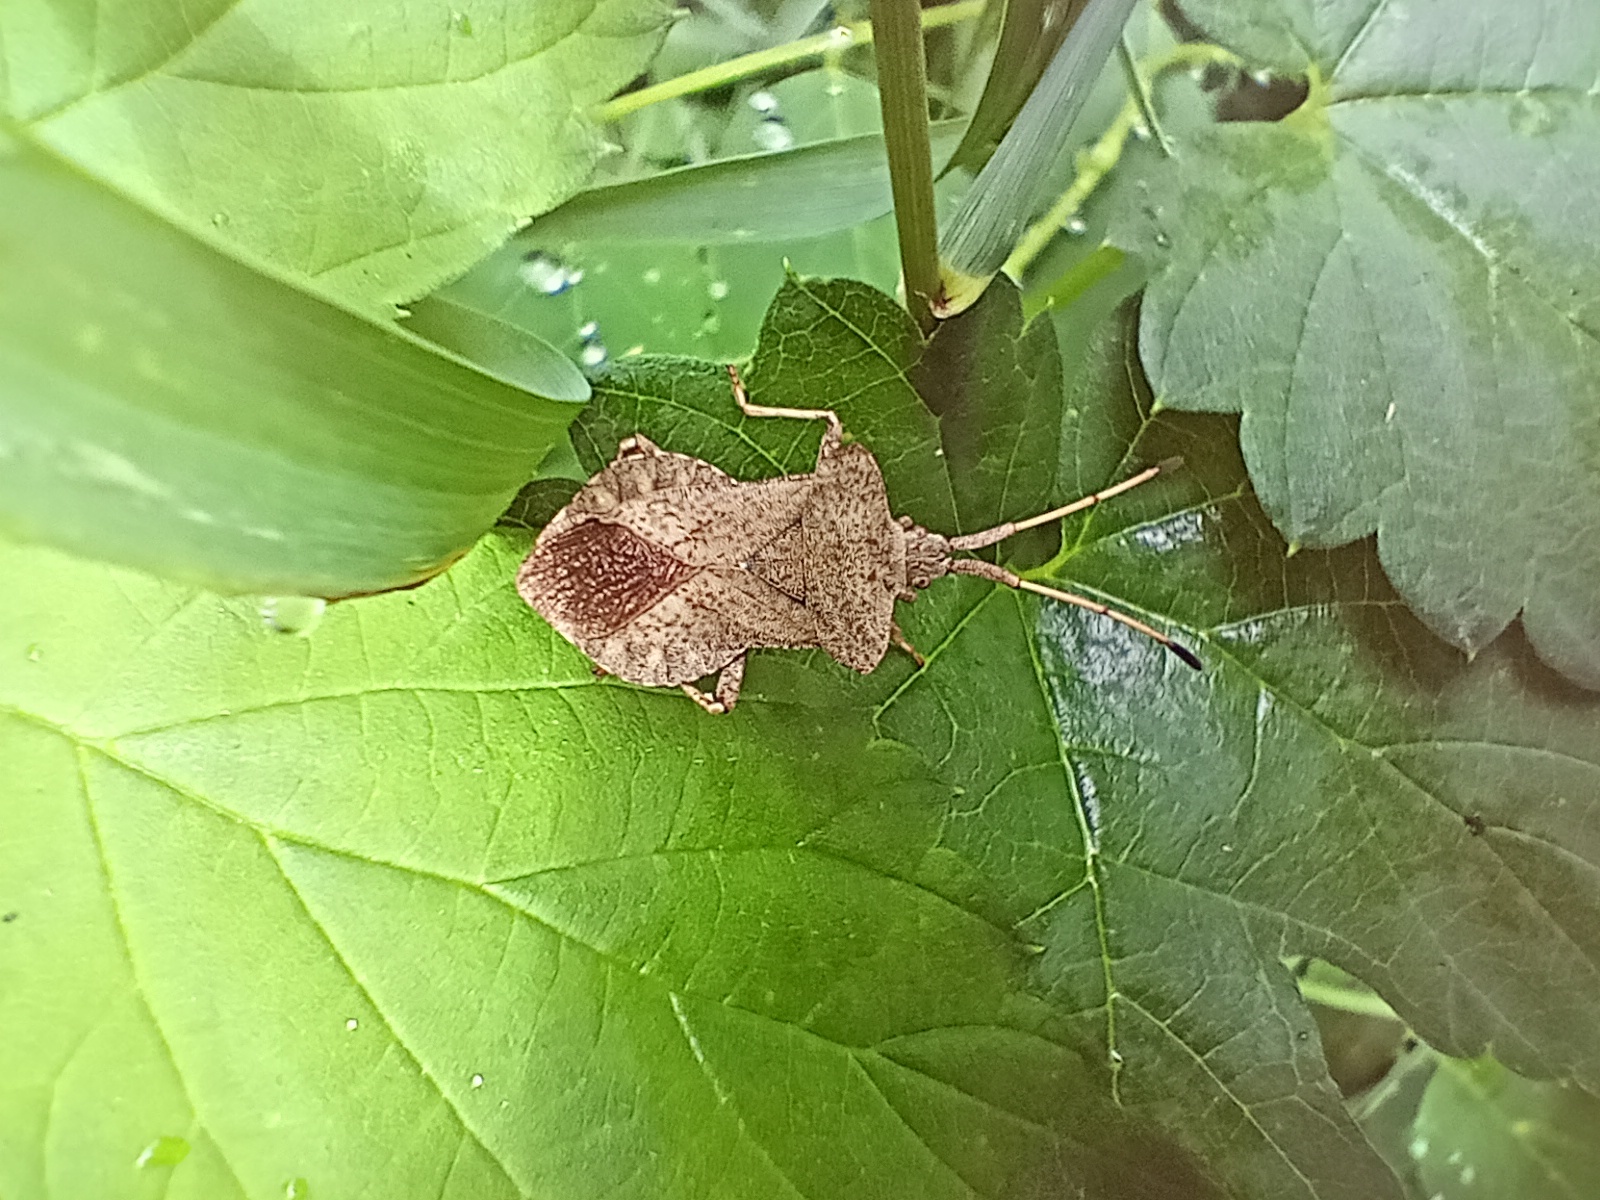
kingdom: Animalia
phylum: Arthropoda
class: Insecta
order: Hemiptera
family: Coreidae
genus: Coreus
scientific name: Coreus marginatus
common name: Dock bug
